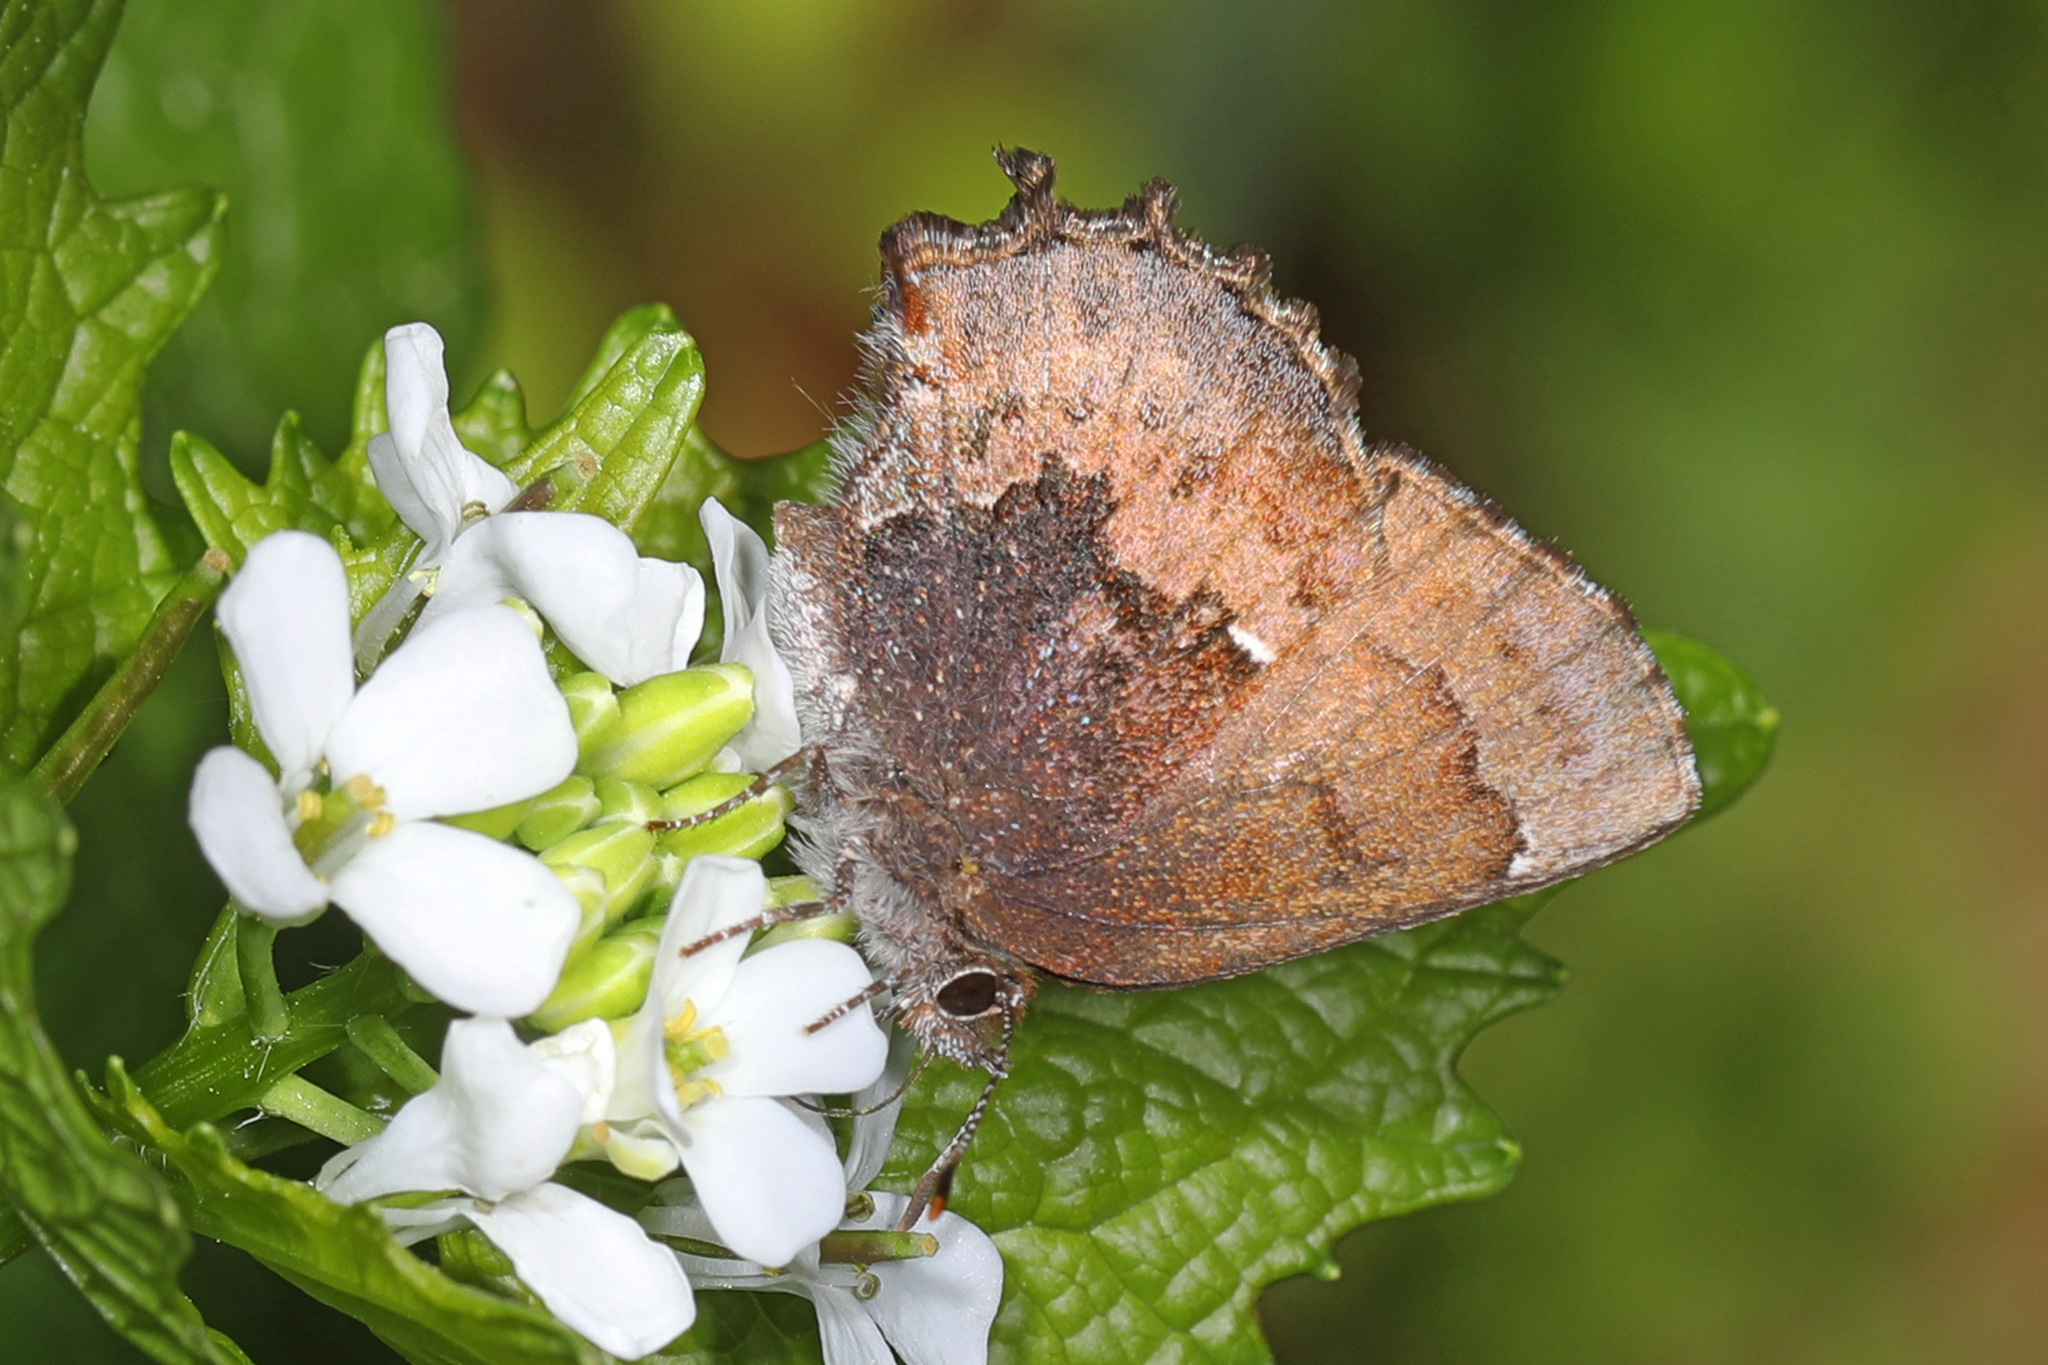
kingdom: Animalia
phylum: Arthropoda
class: Insecta
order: Lepidoptera
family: Lycaenidae
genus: Incisalia
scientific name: Incisalia henrici
